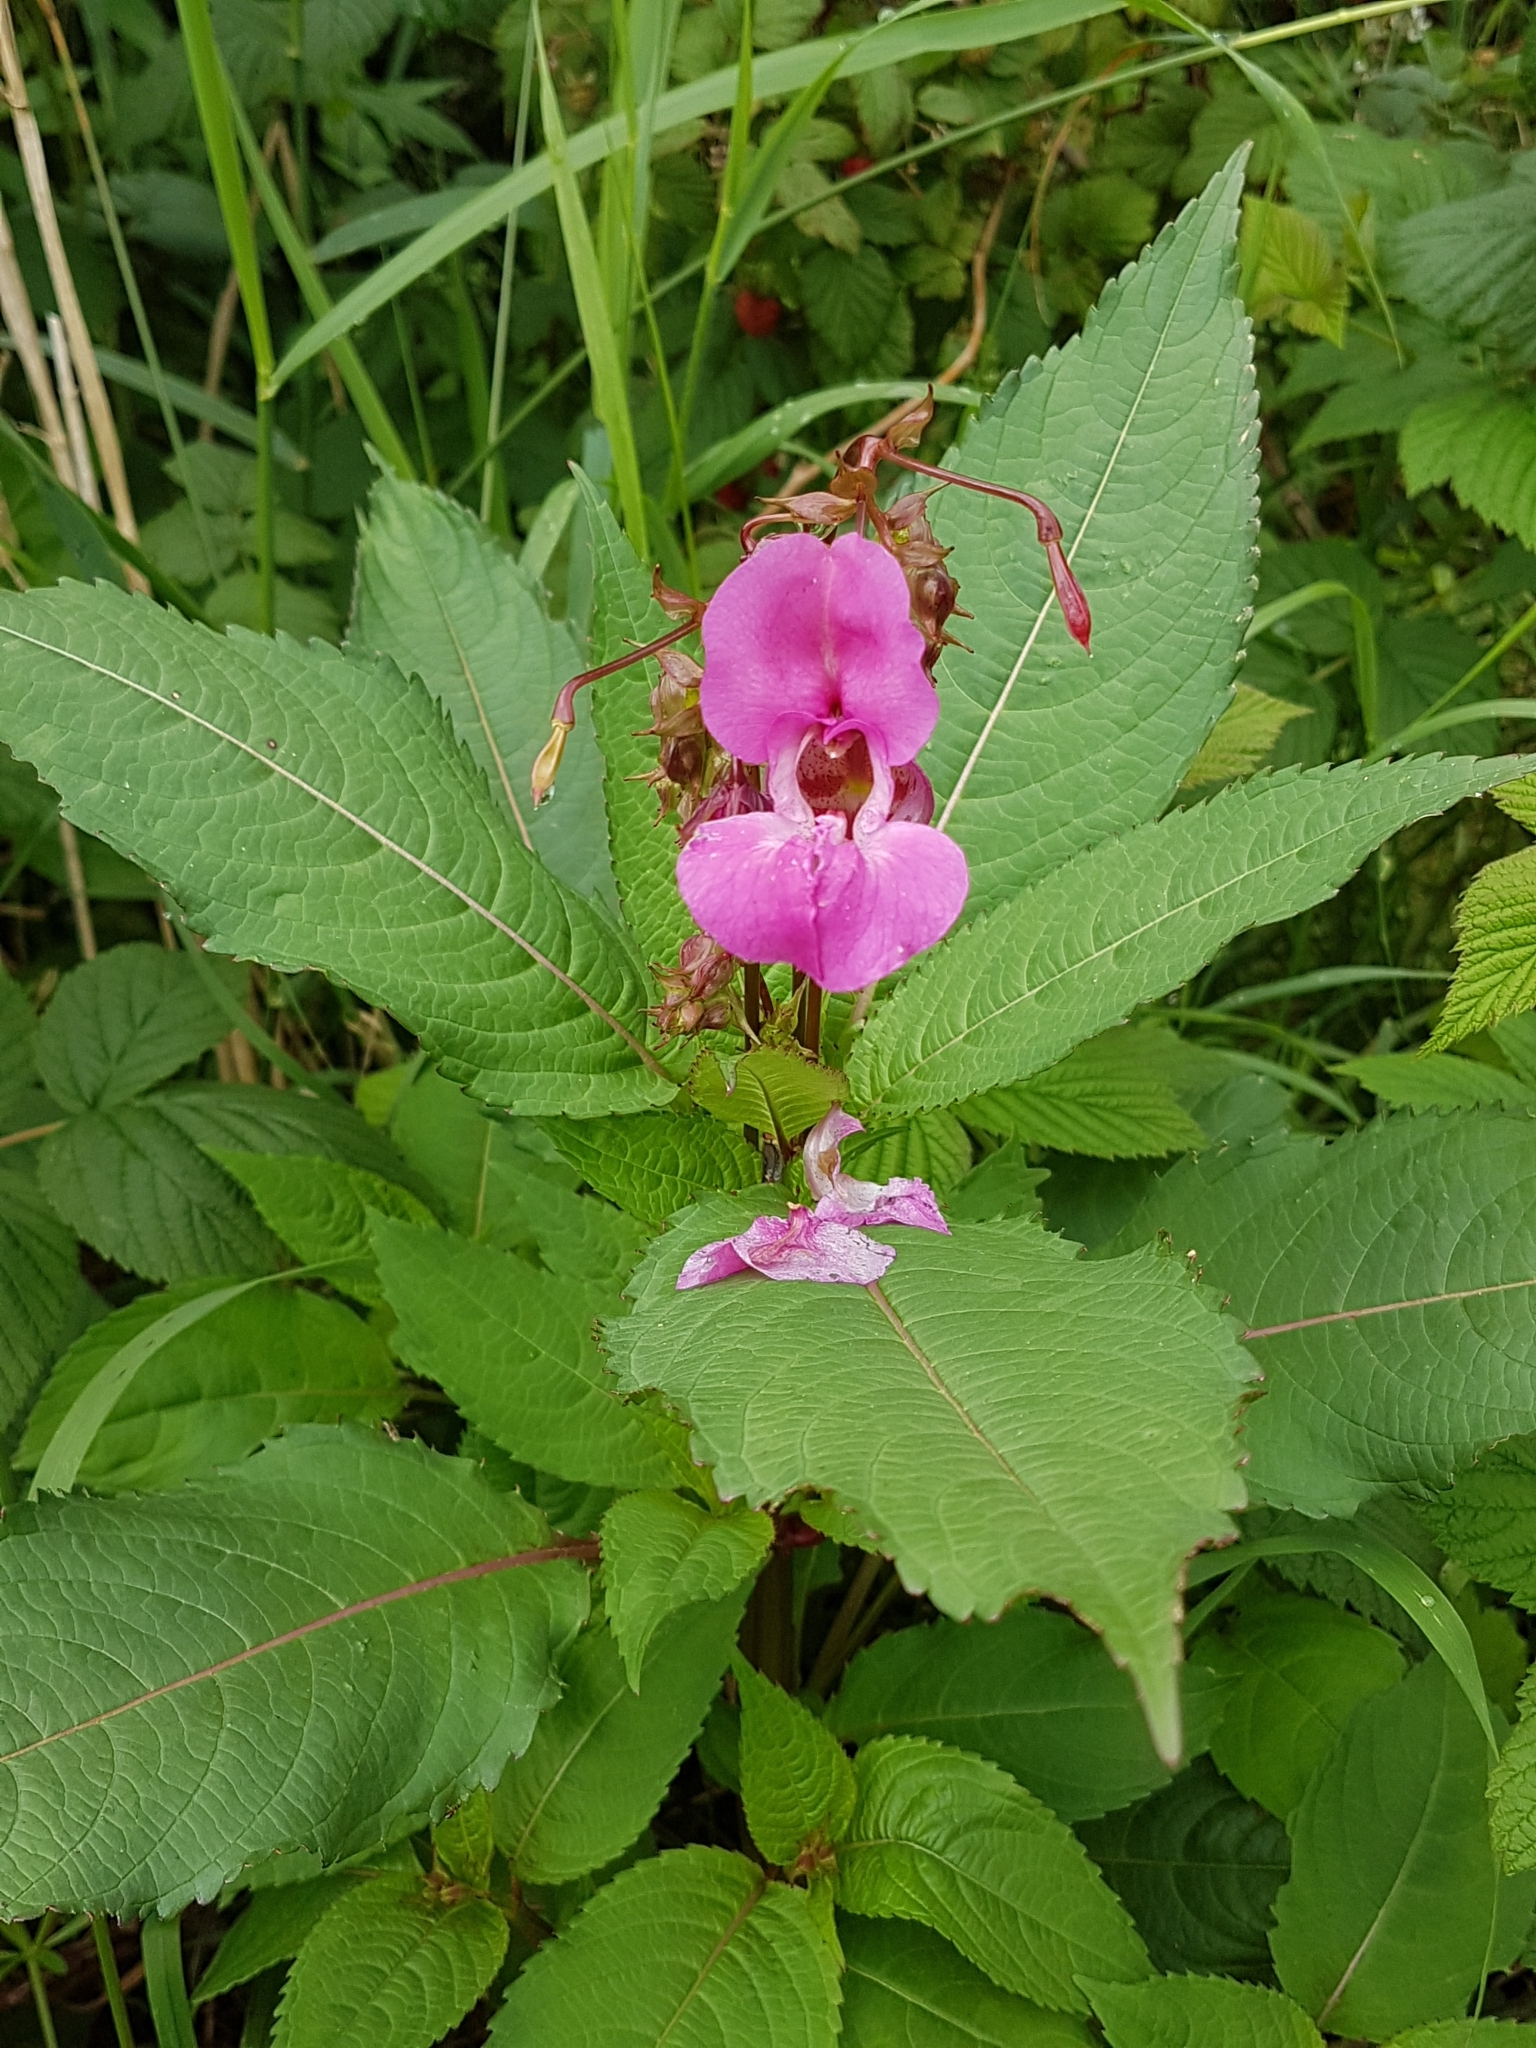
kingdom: Plantae
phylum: Tracheophyta
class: Magnoliopsida
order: Ericales
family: Balsaminaceae
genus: Impatiens
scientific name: Impatiens glandulifera
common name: Himalayan balsam
